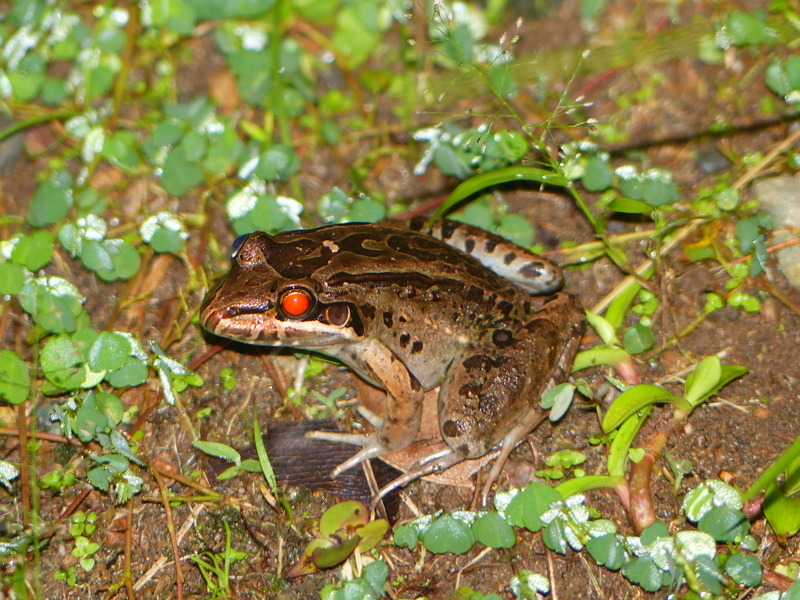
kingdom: Animalia
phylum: Chordata
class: Amphibia
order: Anura
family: Leptodactylidae
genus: Leptodactylus
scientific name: Leptodactylus savagei
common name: Savage's thin-toed frog
